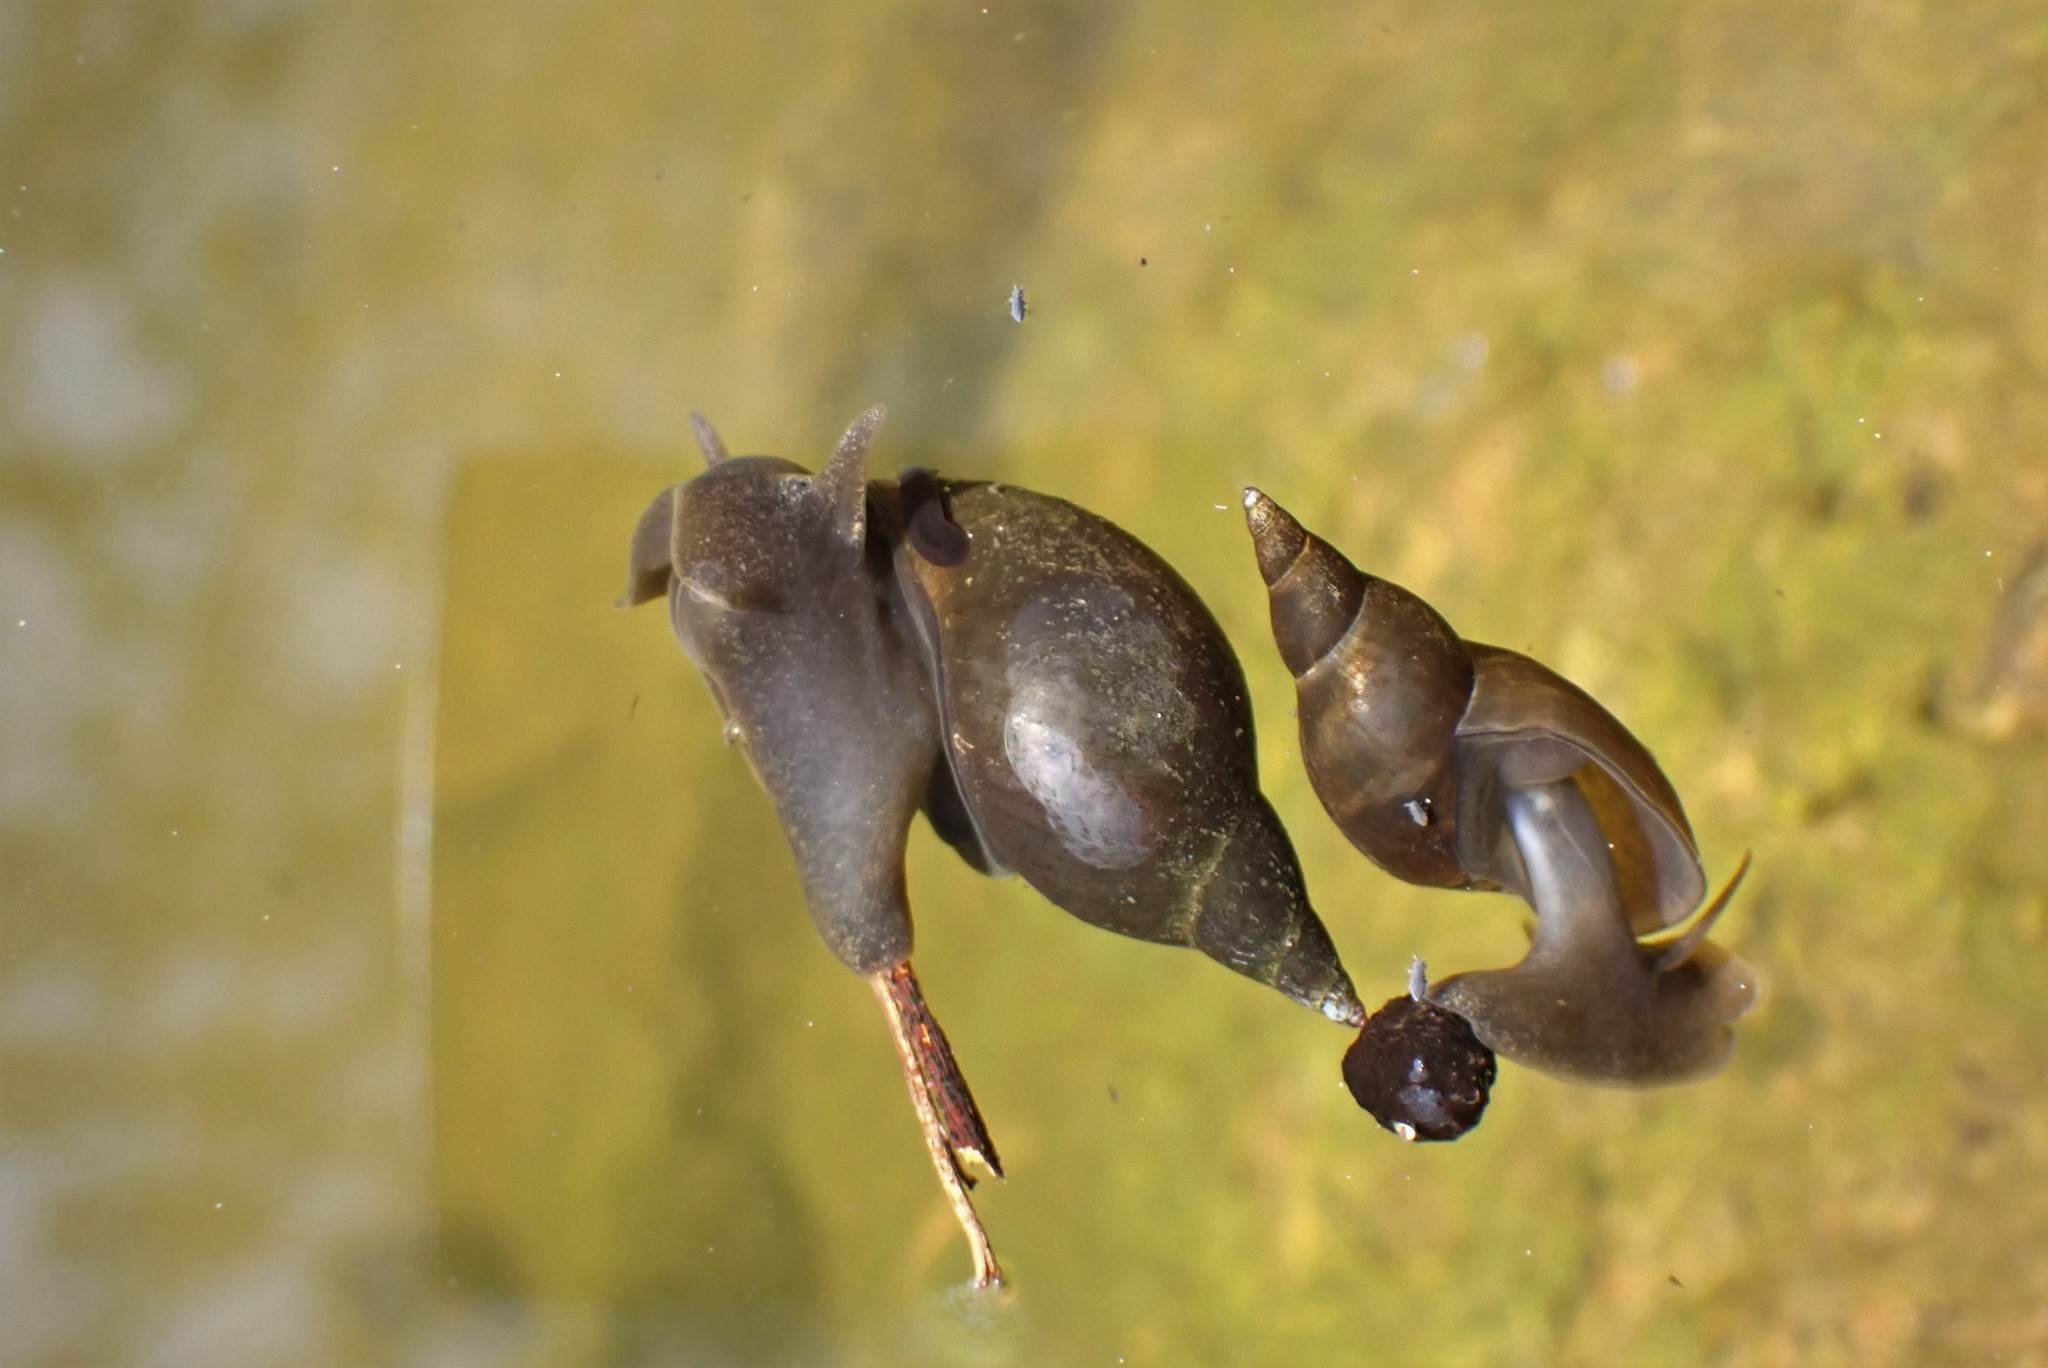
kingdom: Animalia
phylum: Mollusca
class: Gastropoda
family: Lymnaeidae
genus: Lymnaea
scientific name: Lymnaea stagnalis
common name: Great pond snail
